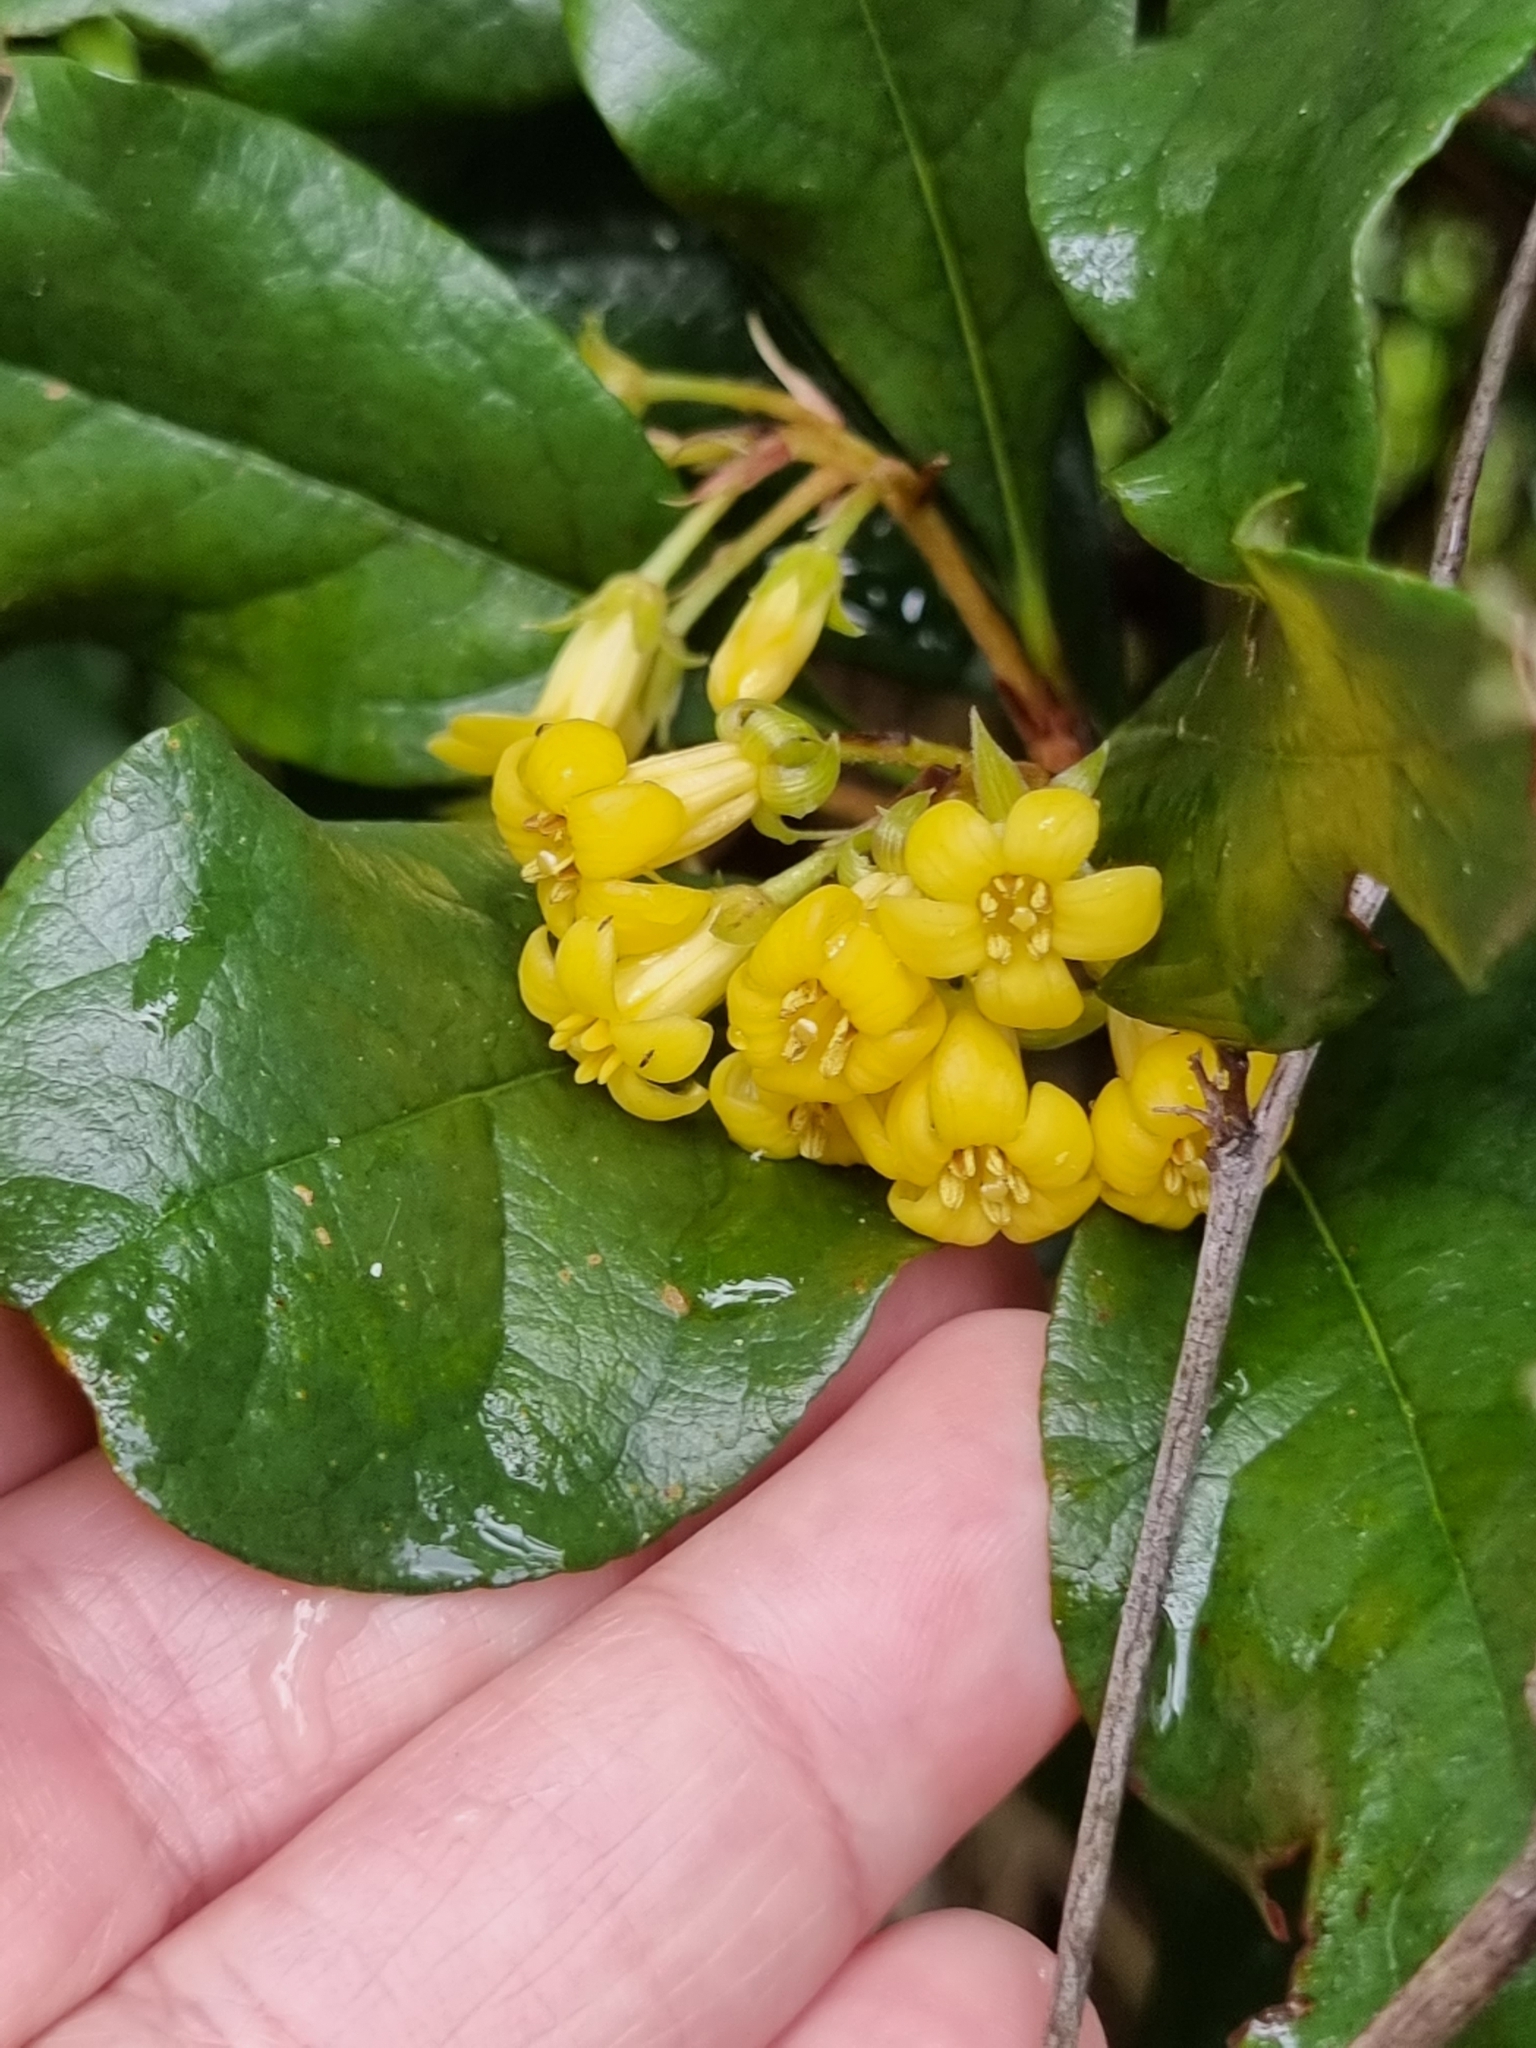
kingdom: Plantae
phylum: Tracheophyta
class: Magnoliopsida
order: Apiales
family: Pittosporaceae
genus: Pittosporum
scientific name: Pittosporum revolutum
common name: Brisbane-laurel
